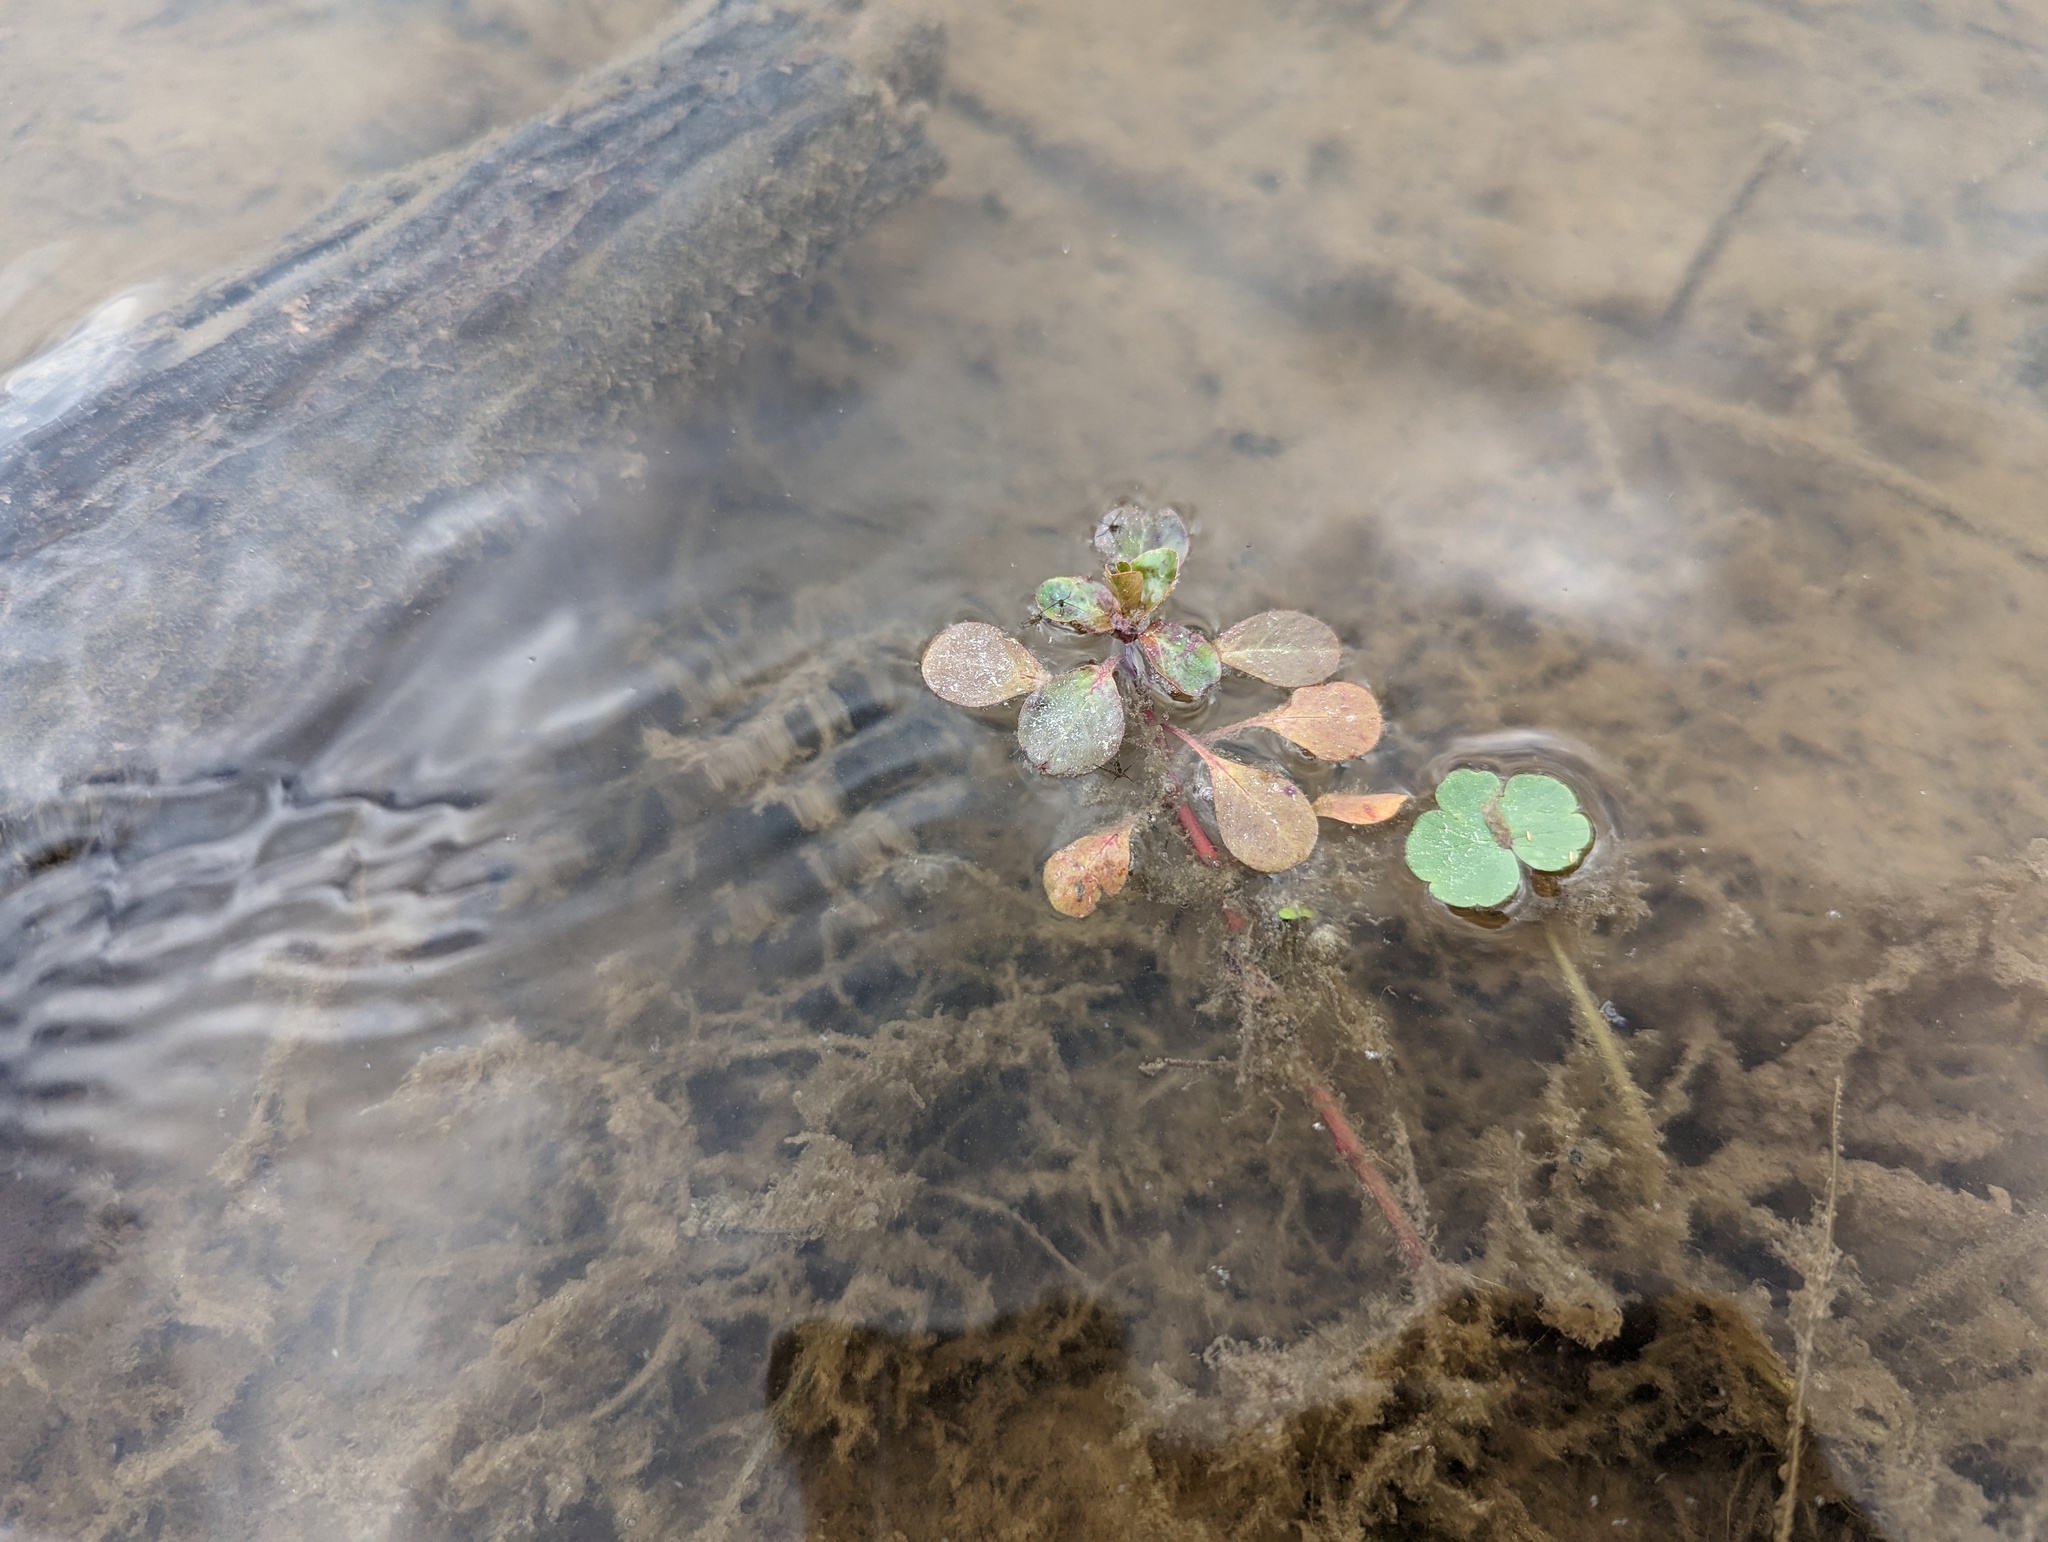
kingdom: Plantae
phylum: Tracheophyta
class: Magnoliopsida
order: Myrtales
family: Onagraceae
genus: Ludwigia
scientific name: Ludwigia peploides
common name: Floating primrose-willow
